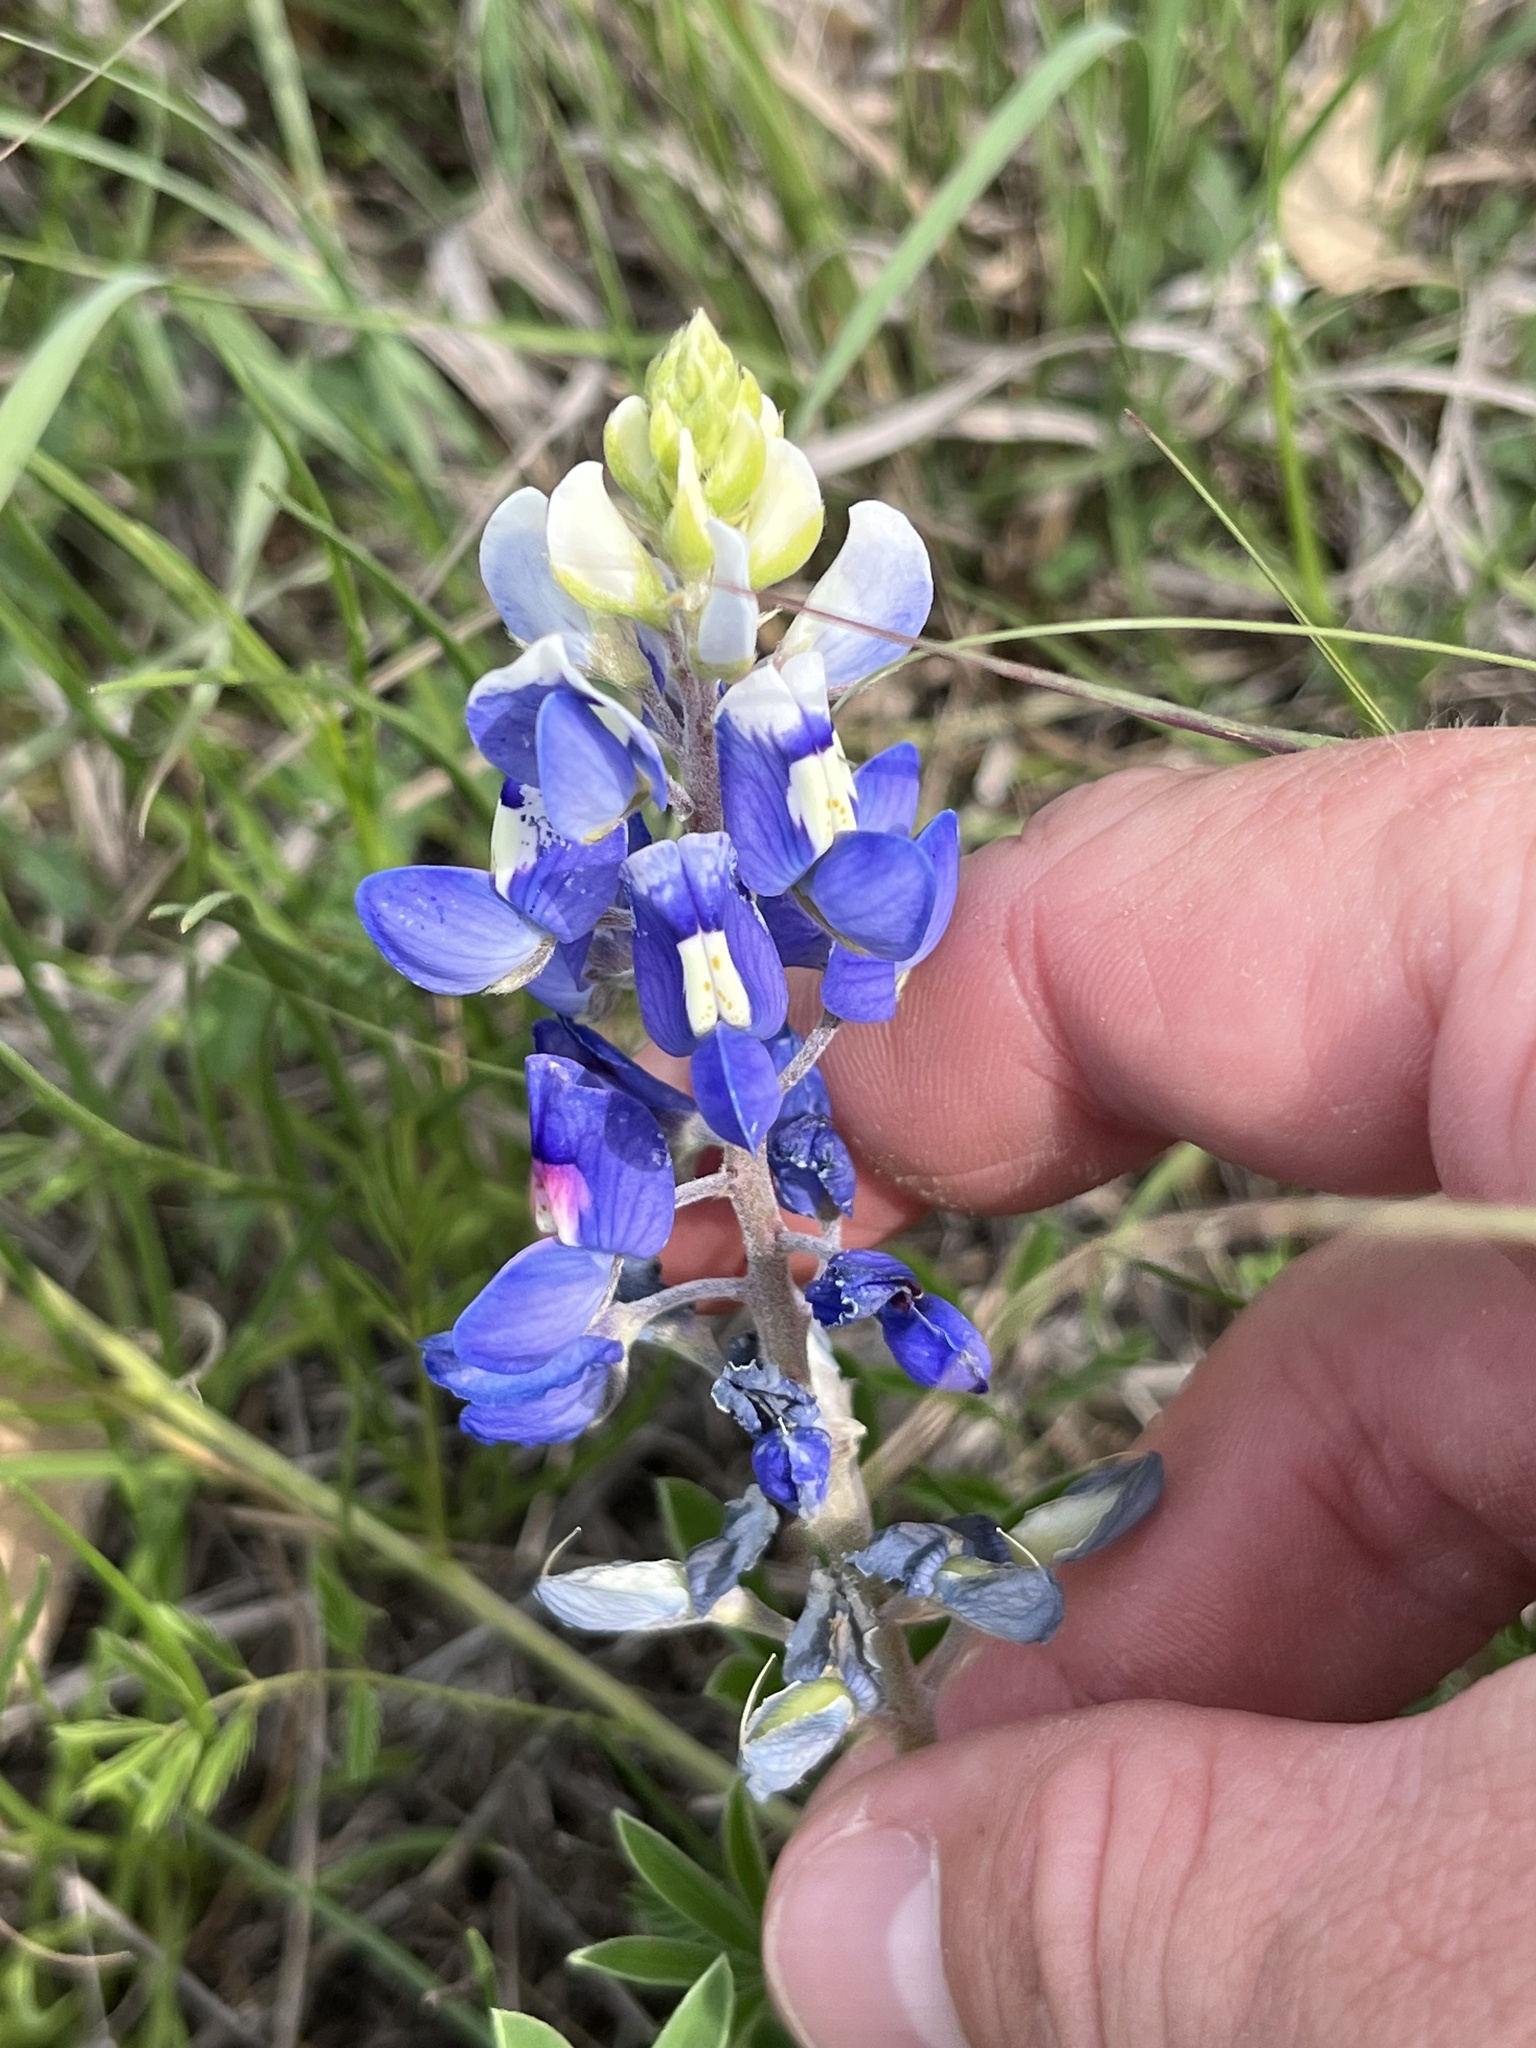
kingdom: Plantae
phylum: Tracheophyta
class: Magnoliopsida
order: Fabales
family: Fabaceae
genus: Lupinus
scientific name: Lupinus texensis
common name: Texas bluebonnet
